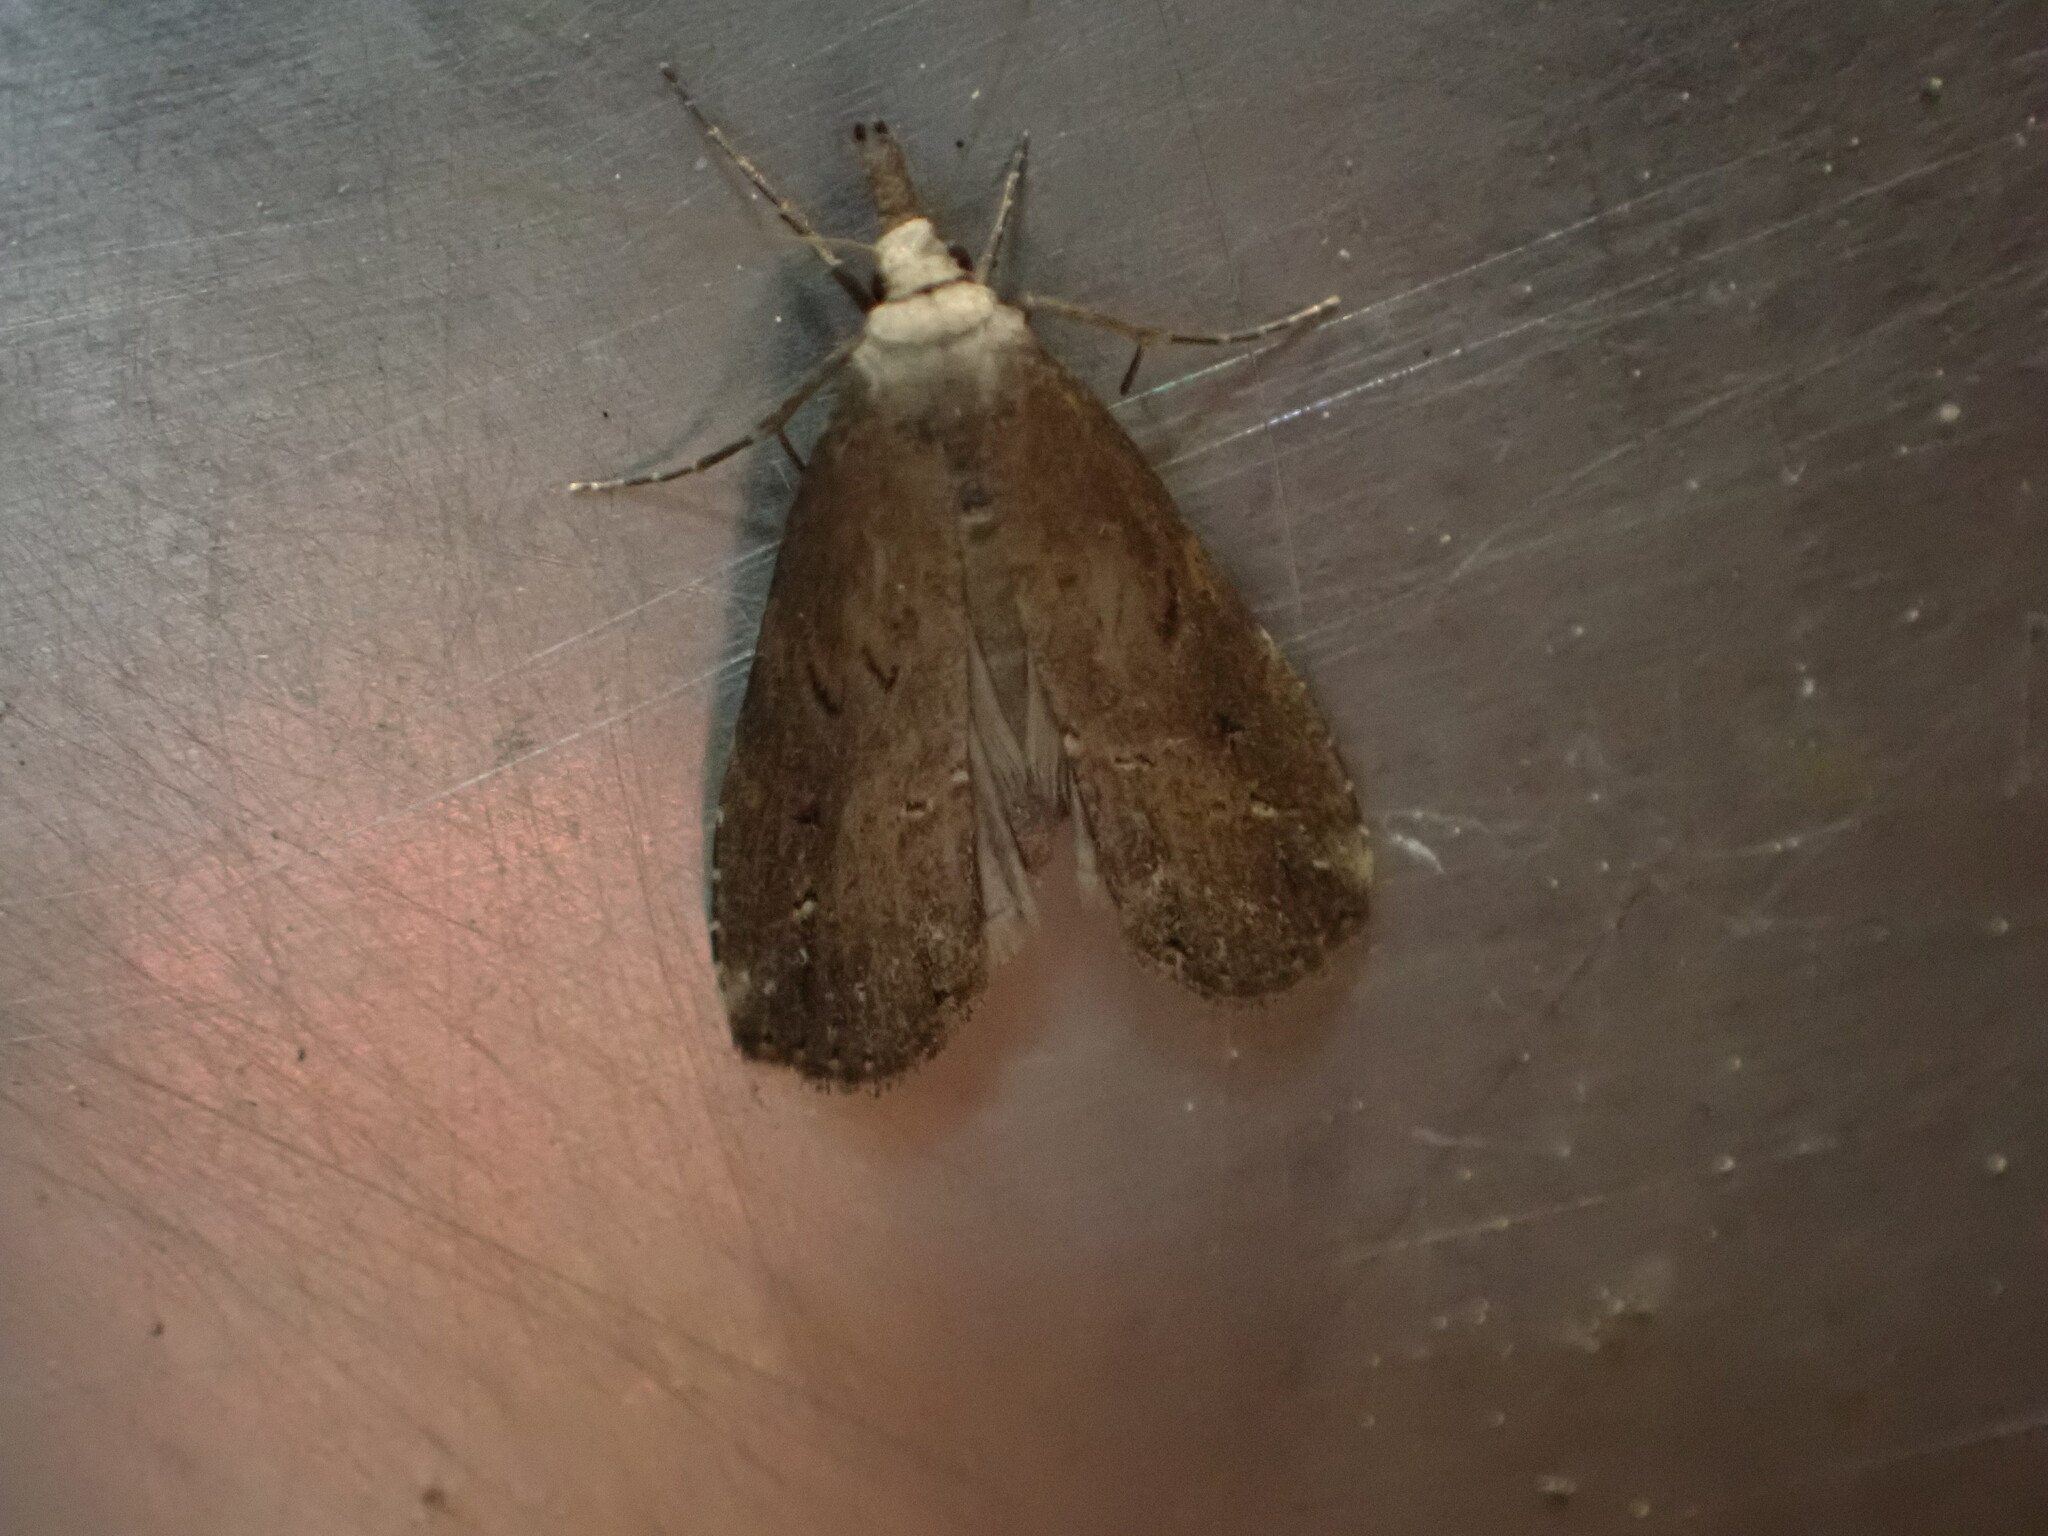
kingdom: Animalia
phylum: Arthropoda
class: Insecta
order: Lepidoptera
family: Erebidae
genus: Schrankia
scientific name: Schrankia costaestrigalis
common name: Pinion-streaked snout
